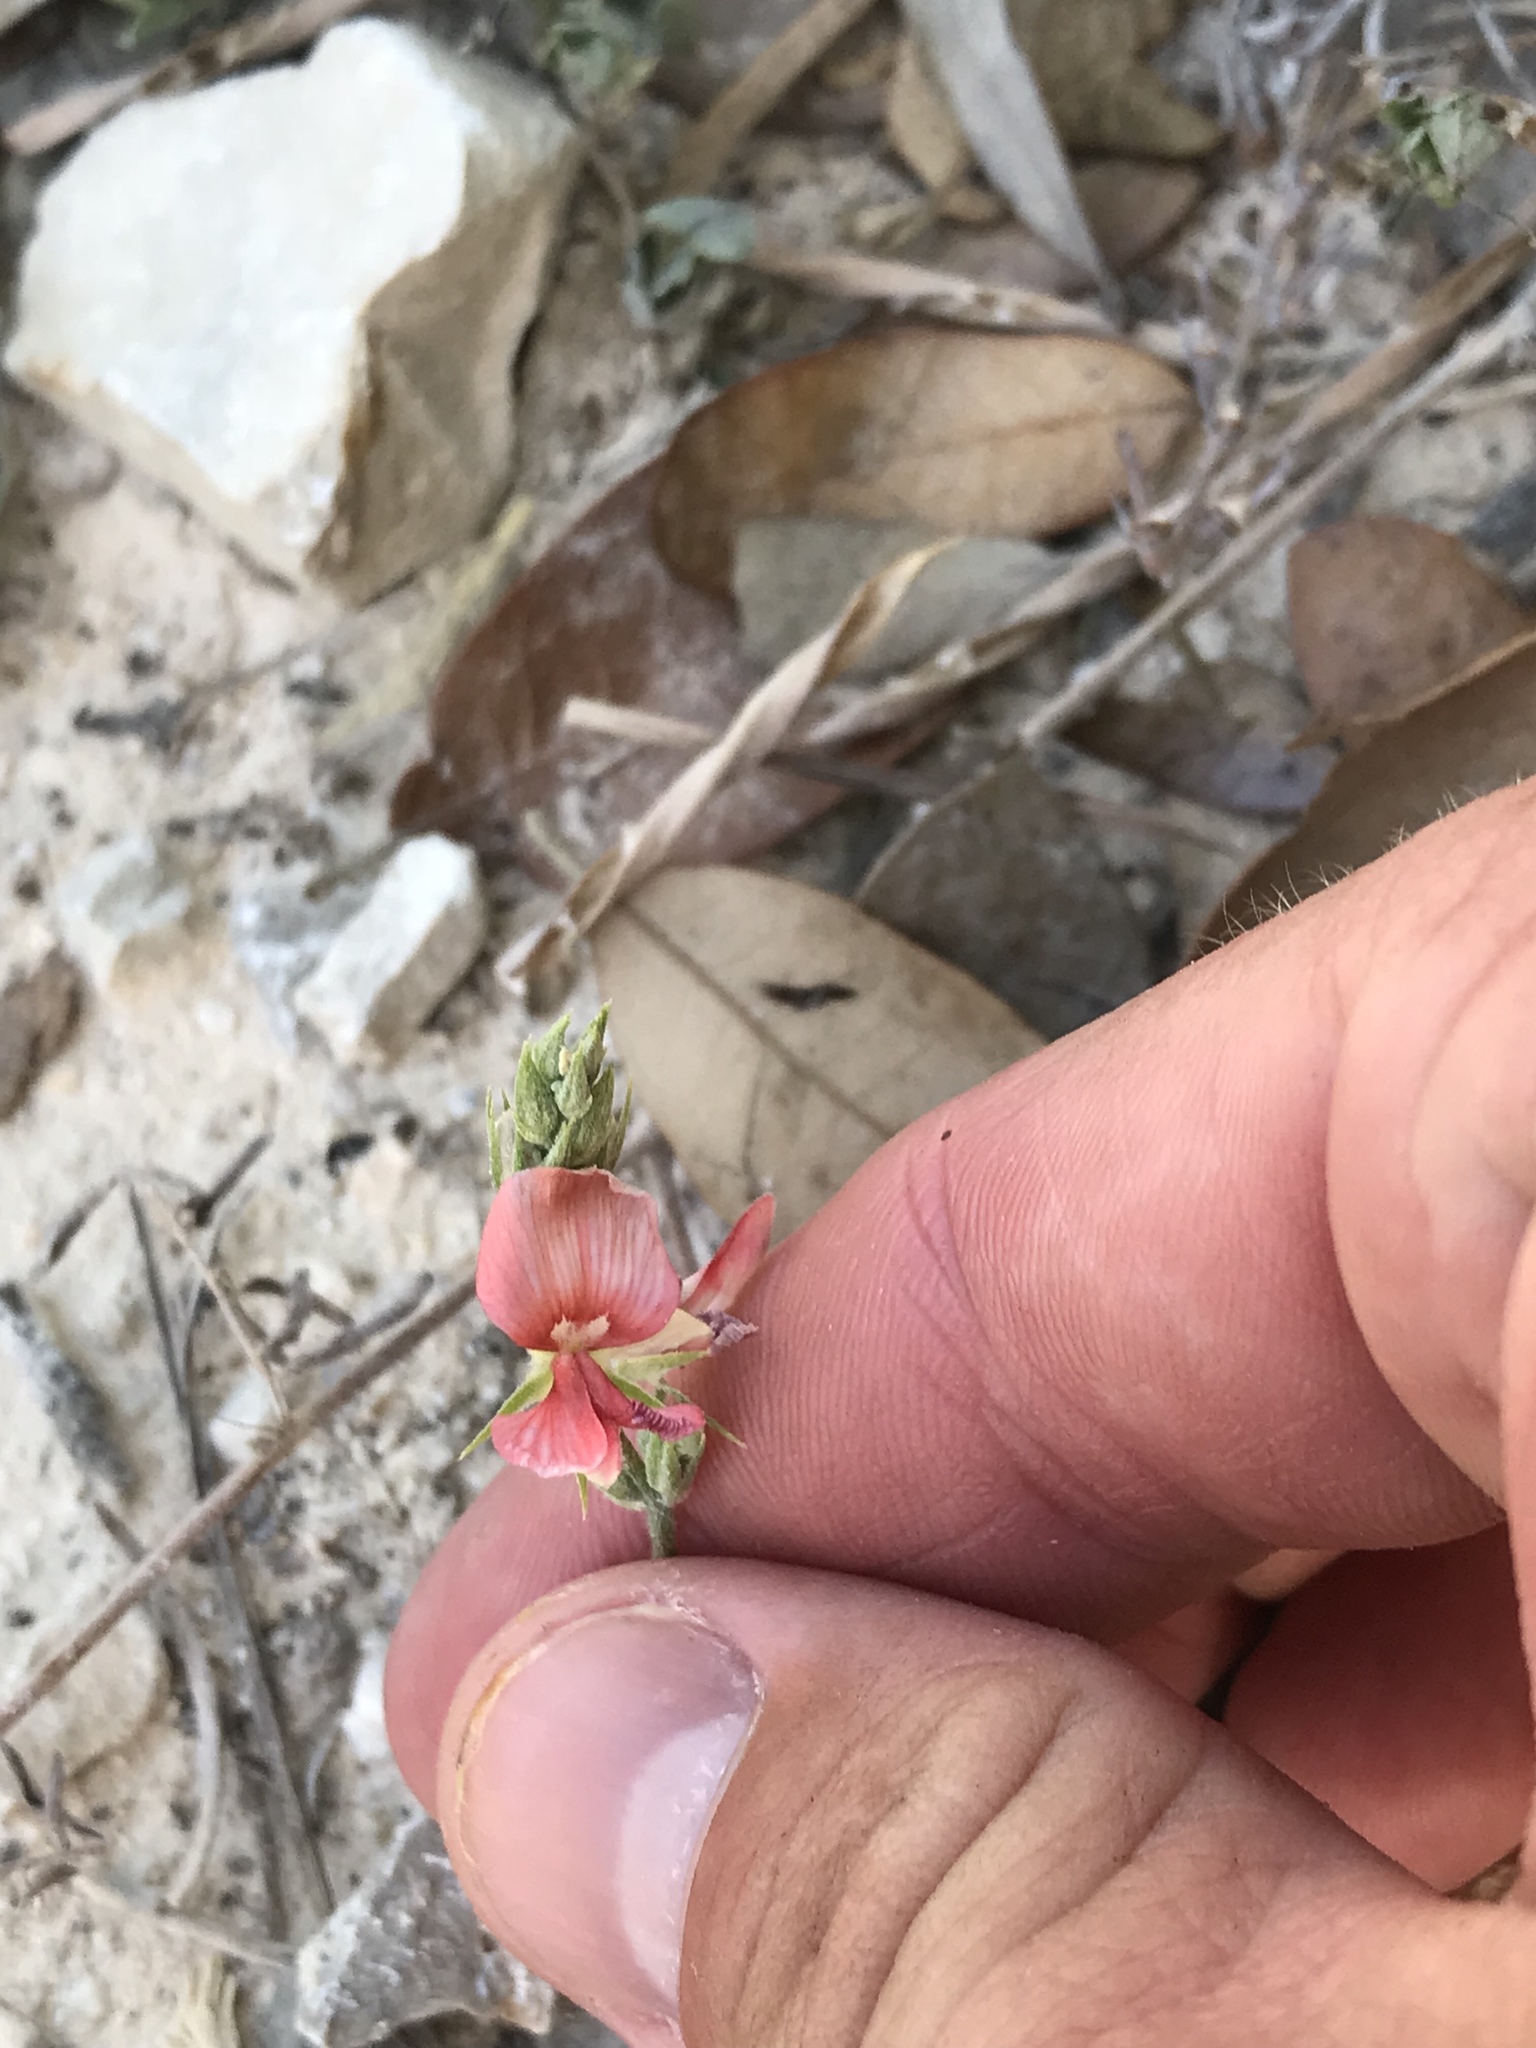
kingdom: Plantae
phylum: Tracheophyta
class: Magnoliopsida
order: Fabales
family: Fabaceae
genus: Indigofera
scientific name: Indigofera miniata
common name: Coast indigo
